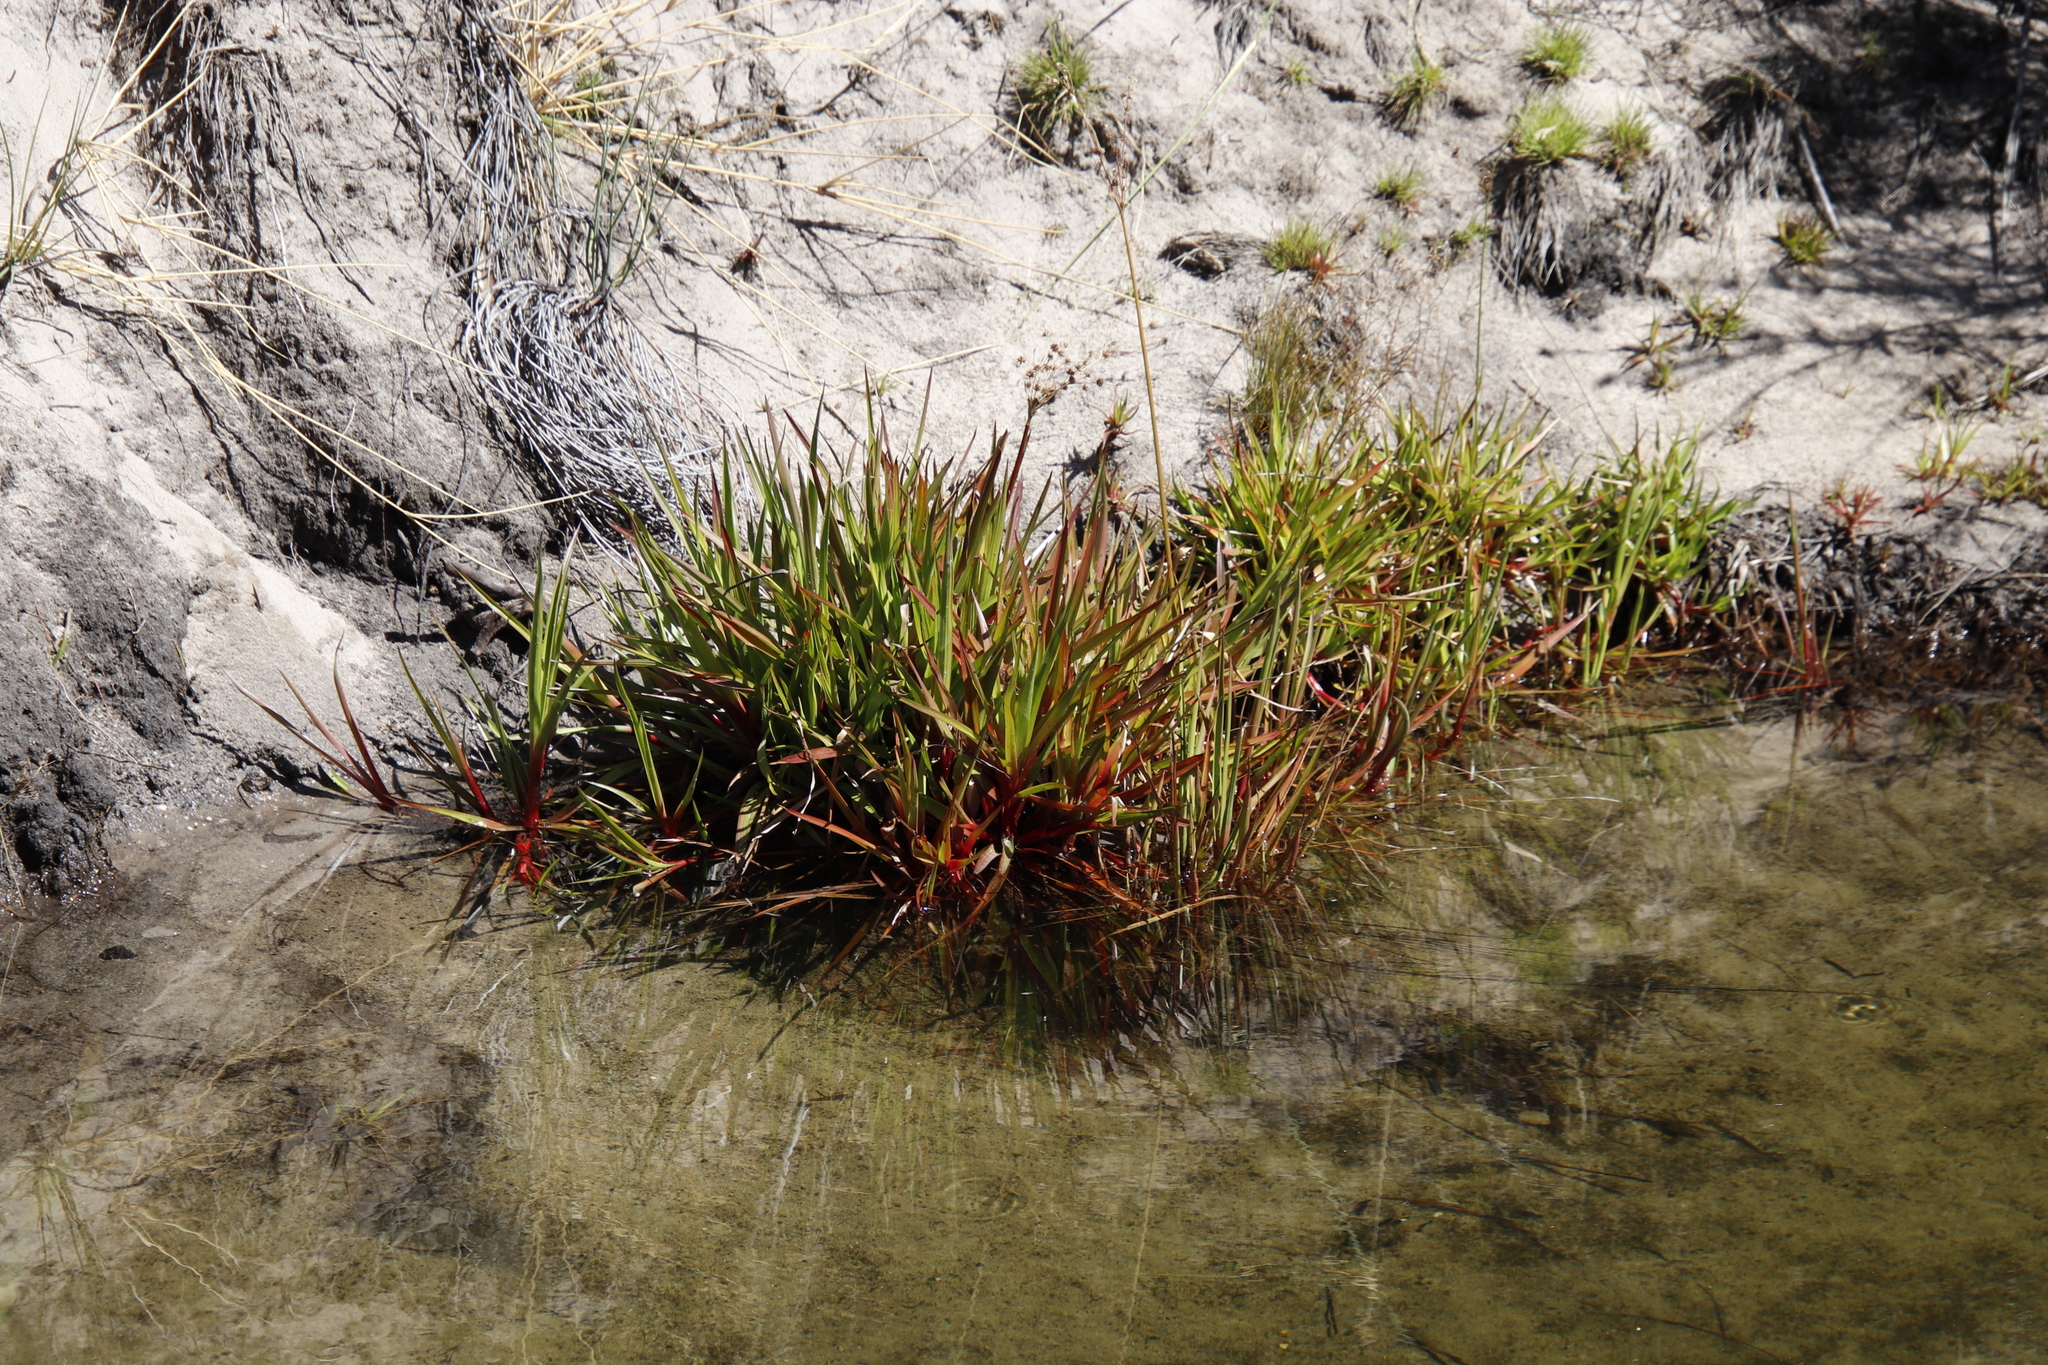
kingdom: Plantae
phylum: Tracheophyta
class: Liliopsida
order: Poales
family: Juncaceae
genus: Juncus
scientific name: Juncus lomatophyllus
